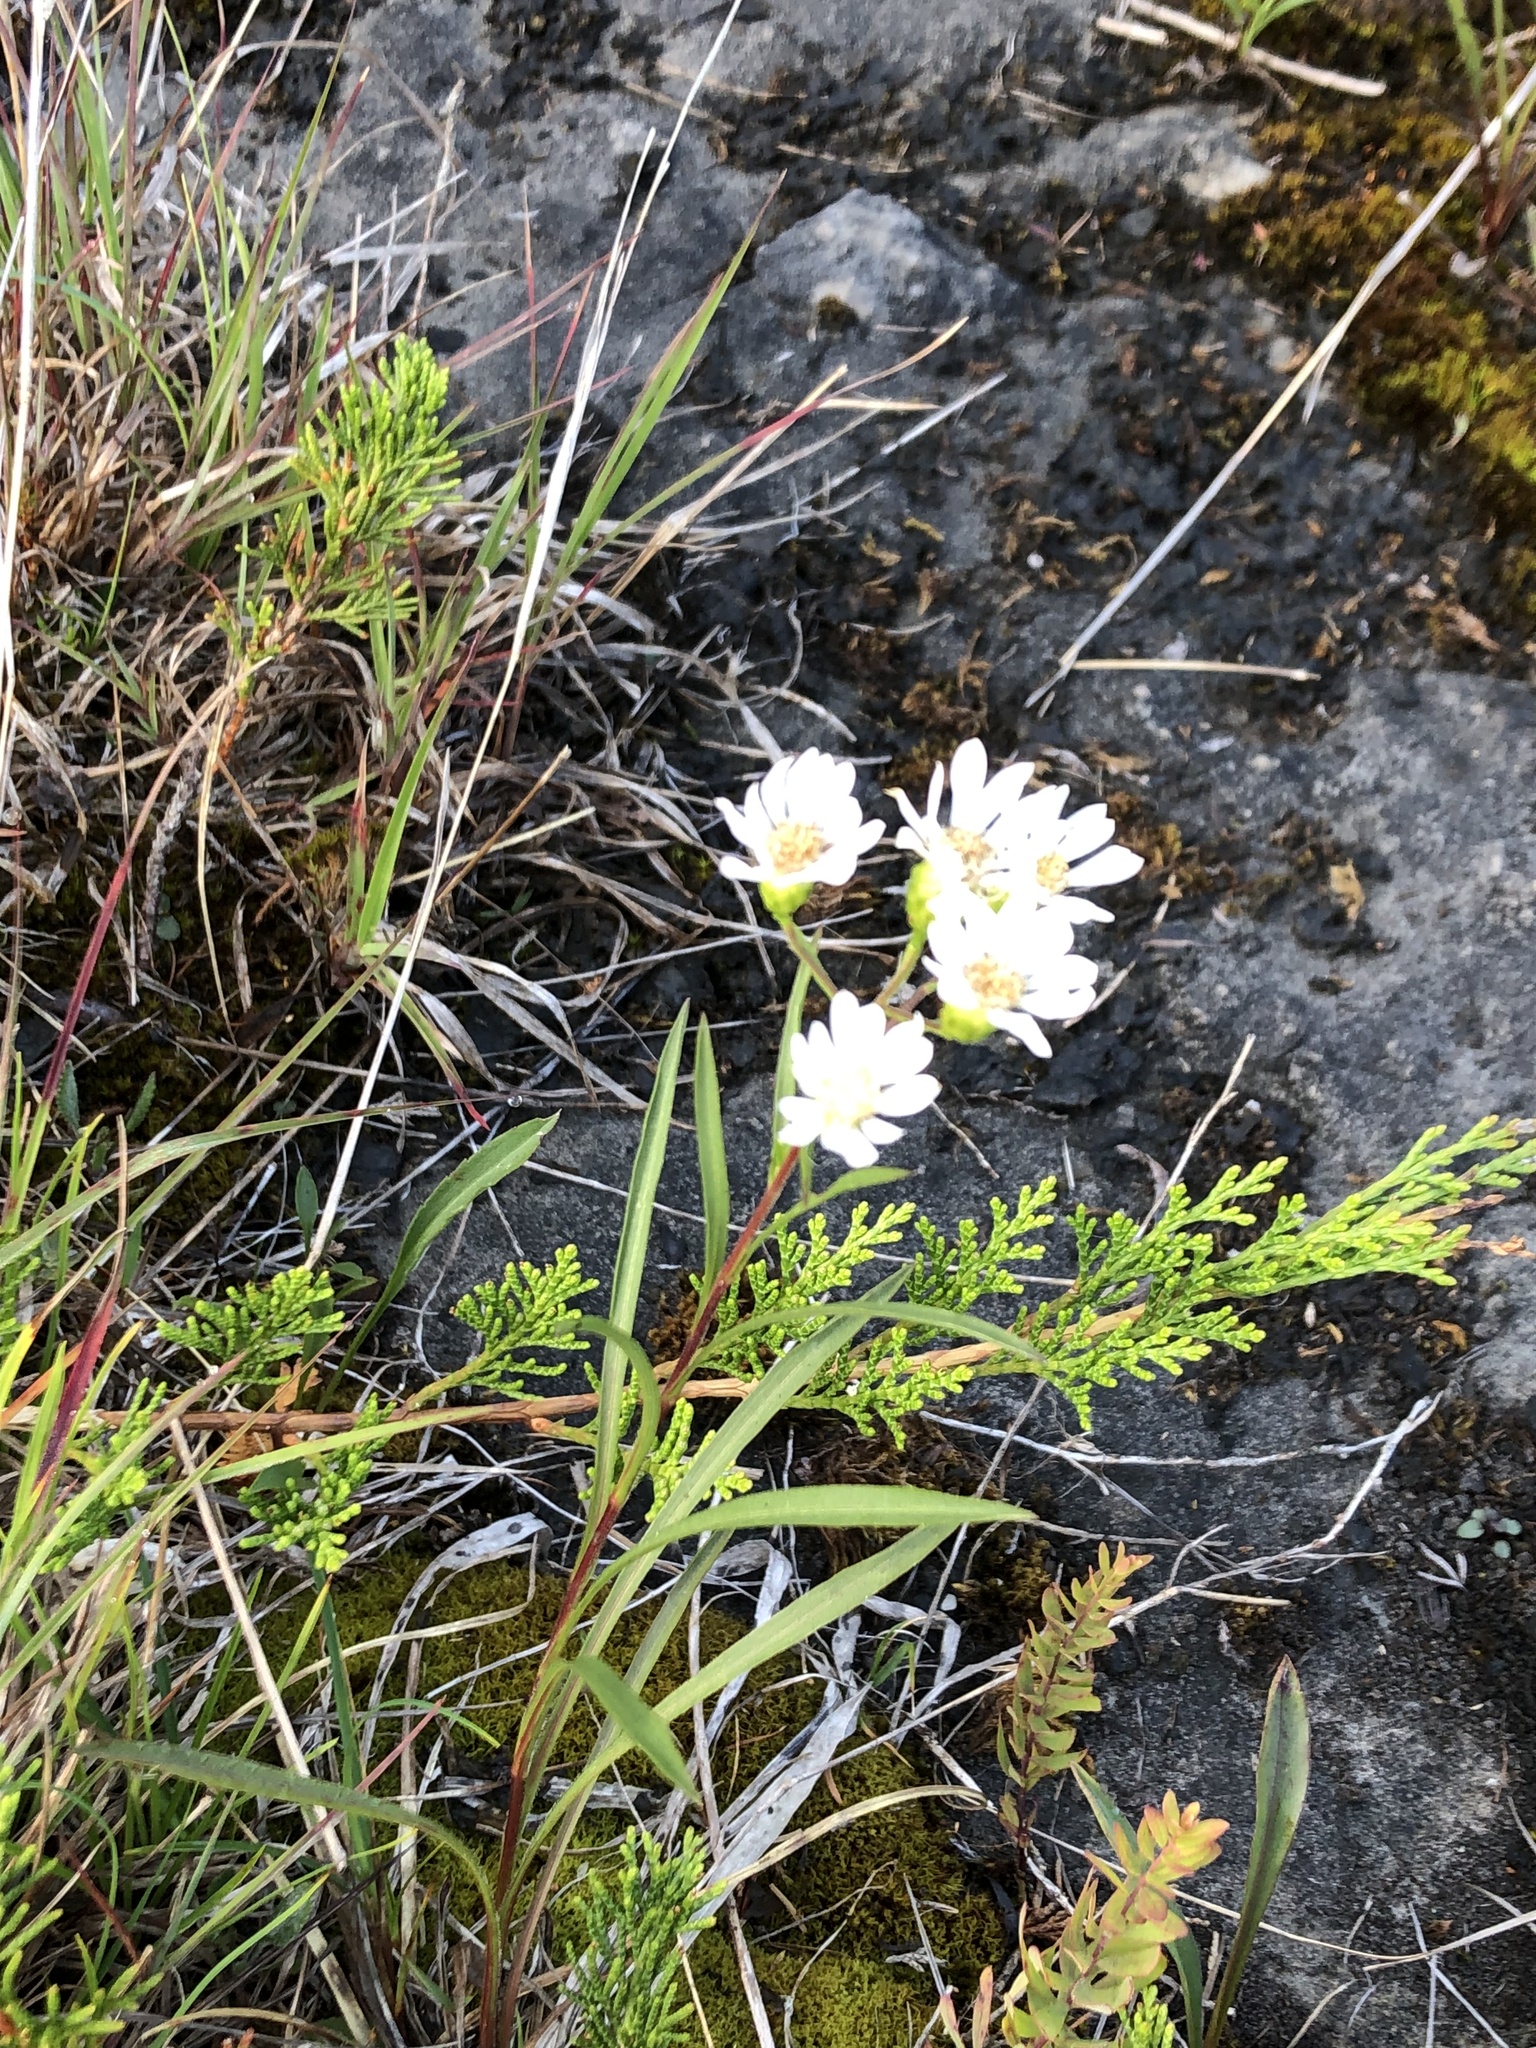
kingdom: Plantae
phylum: Tracheophyta
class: Magnoliopsida
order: Asterales
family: Asteraceae
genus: Solidago
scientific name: Solidago ptarmicoides
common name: White flat-top goldenrod
